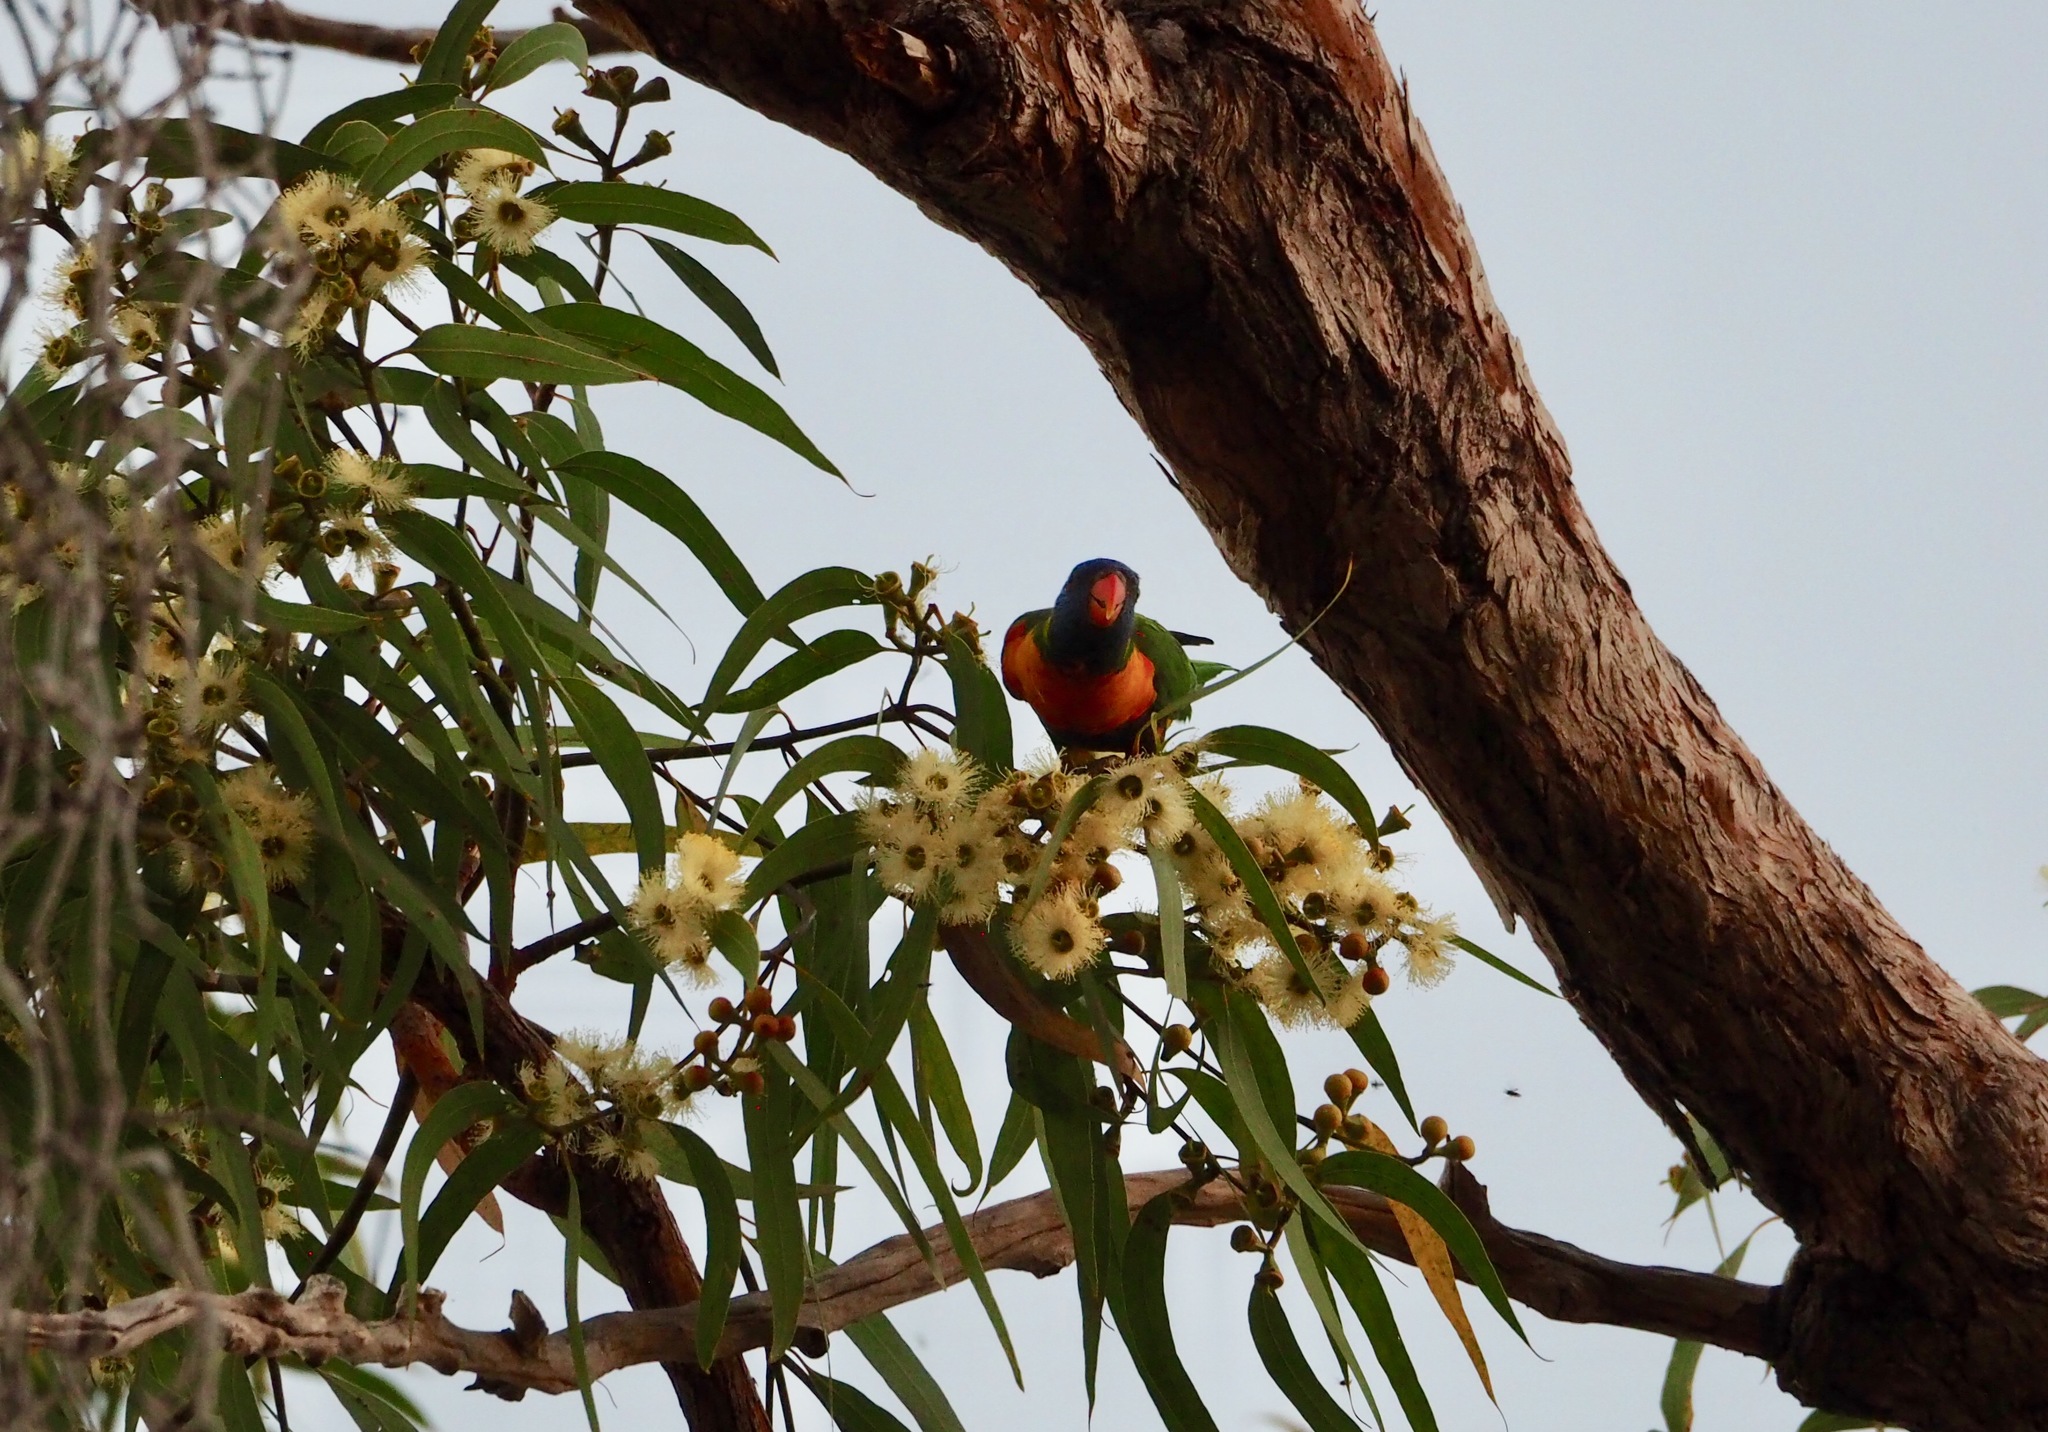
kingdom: Animalia
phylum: Chordata
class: Aves
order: Psittaciformes
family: Psittacidae
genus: Trichoglossus
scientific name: Trichoglossus haematodus
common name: Coconut lorikeet
